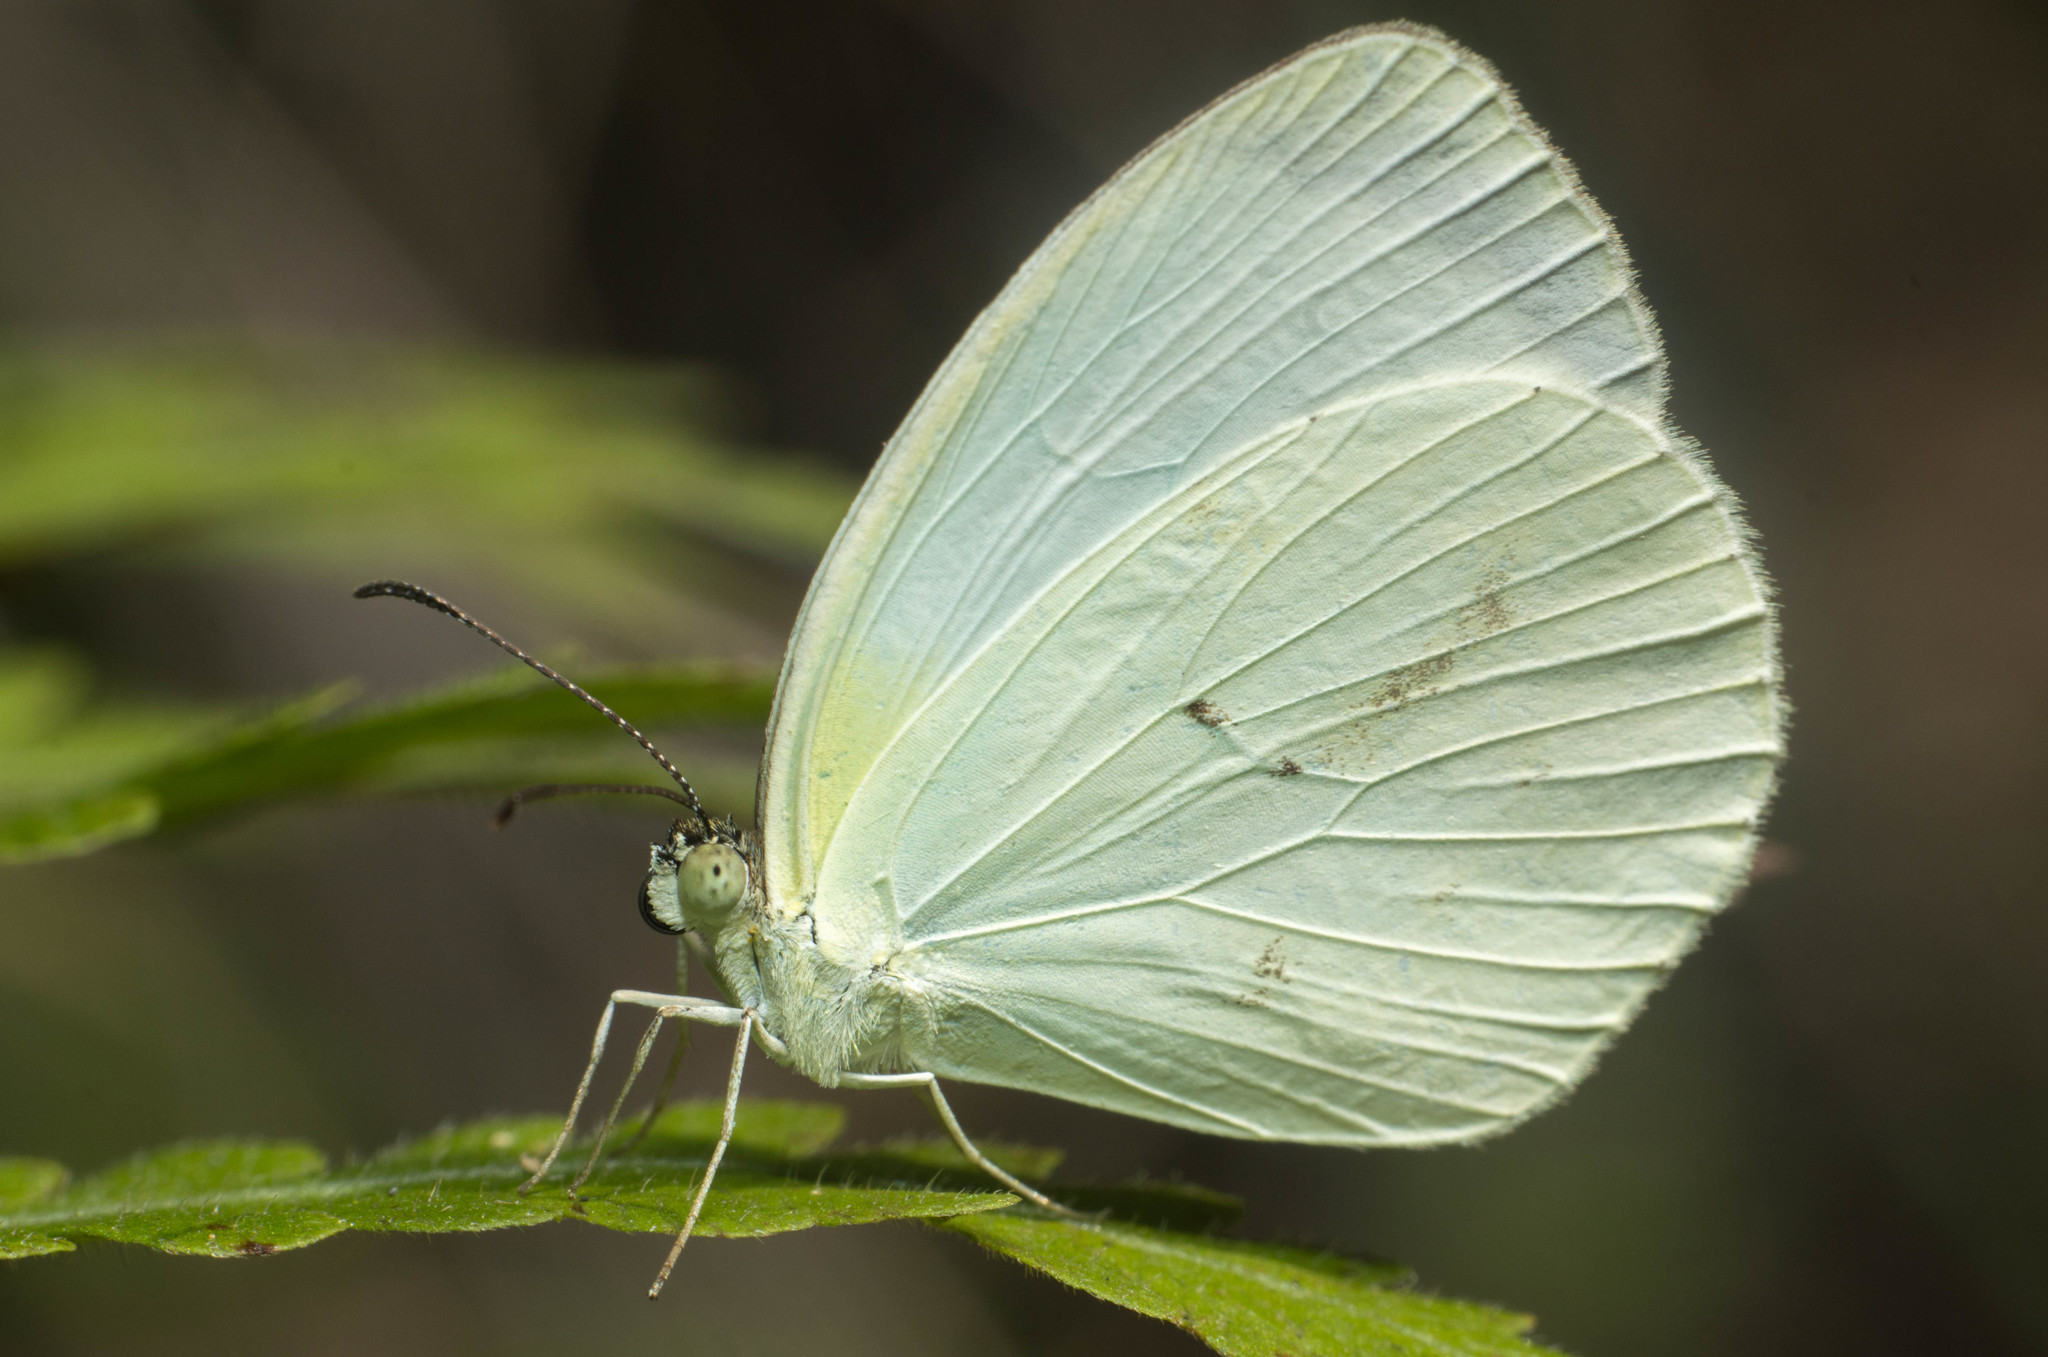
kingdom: Animalia
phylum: Arthropoda
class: Insecta
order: Lepidoptera
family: Pieridae
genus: Abaeis
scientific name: Abaeis albula
